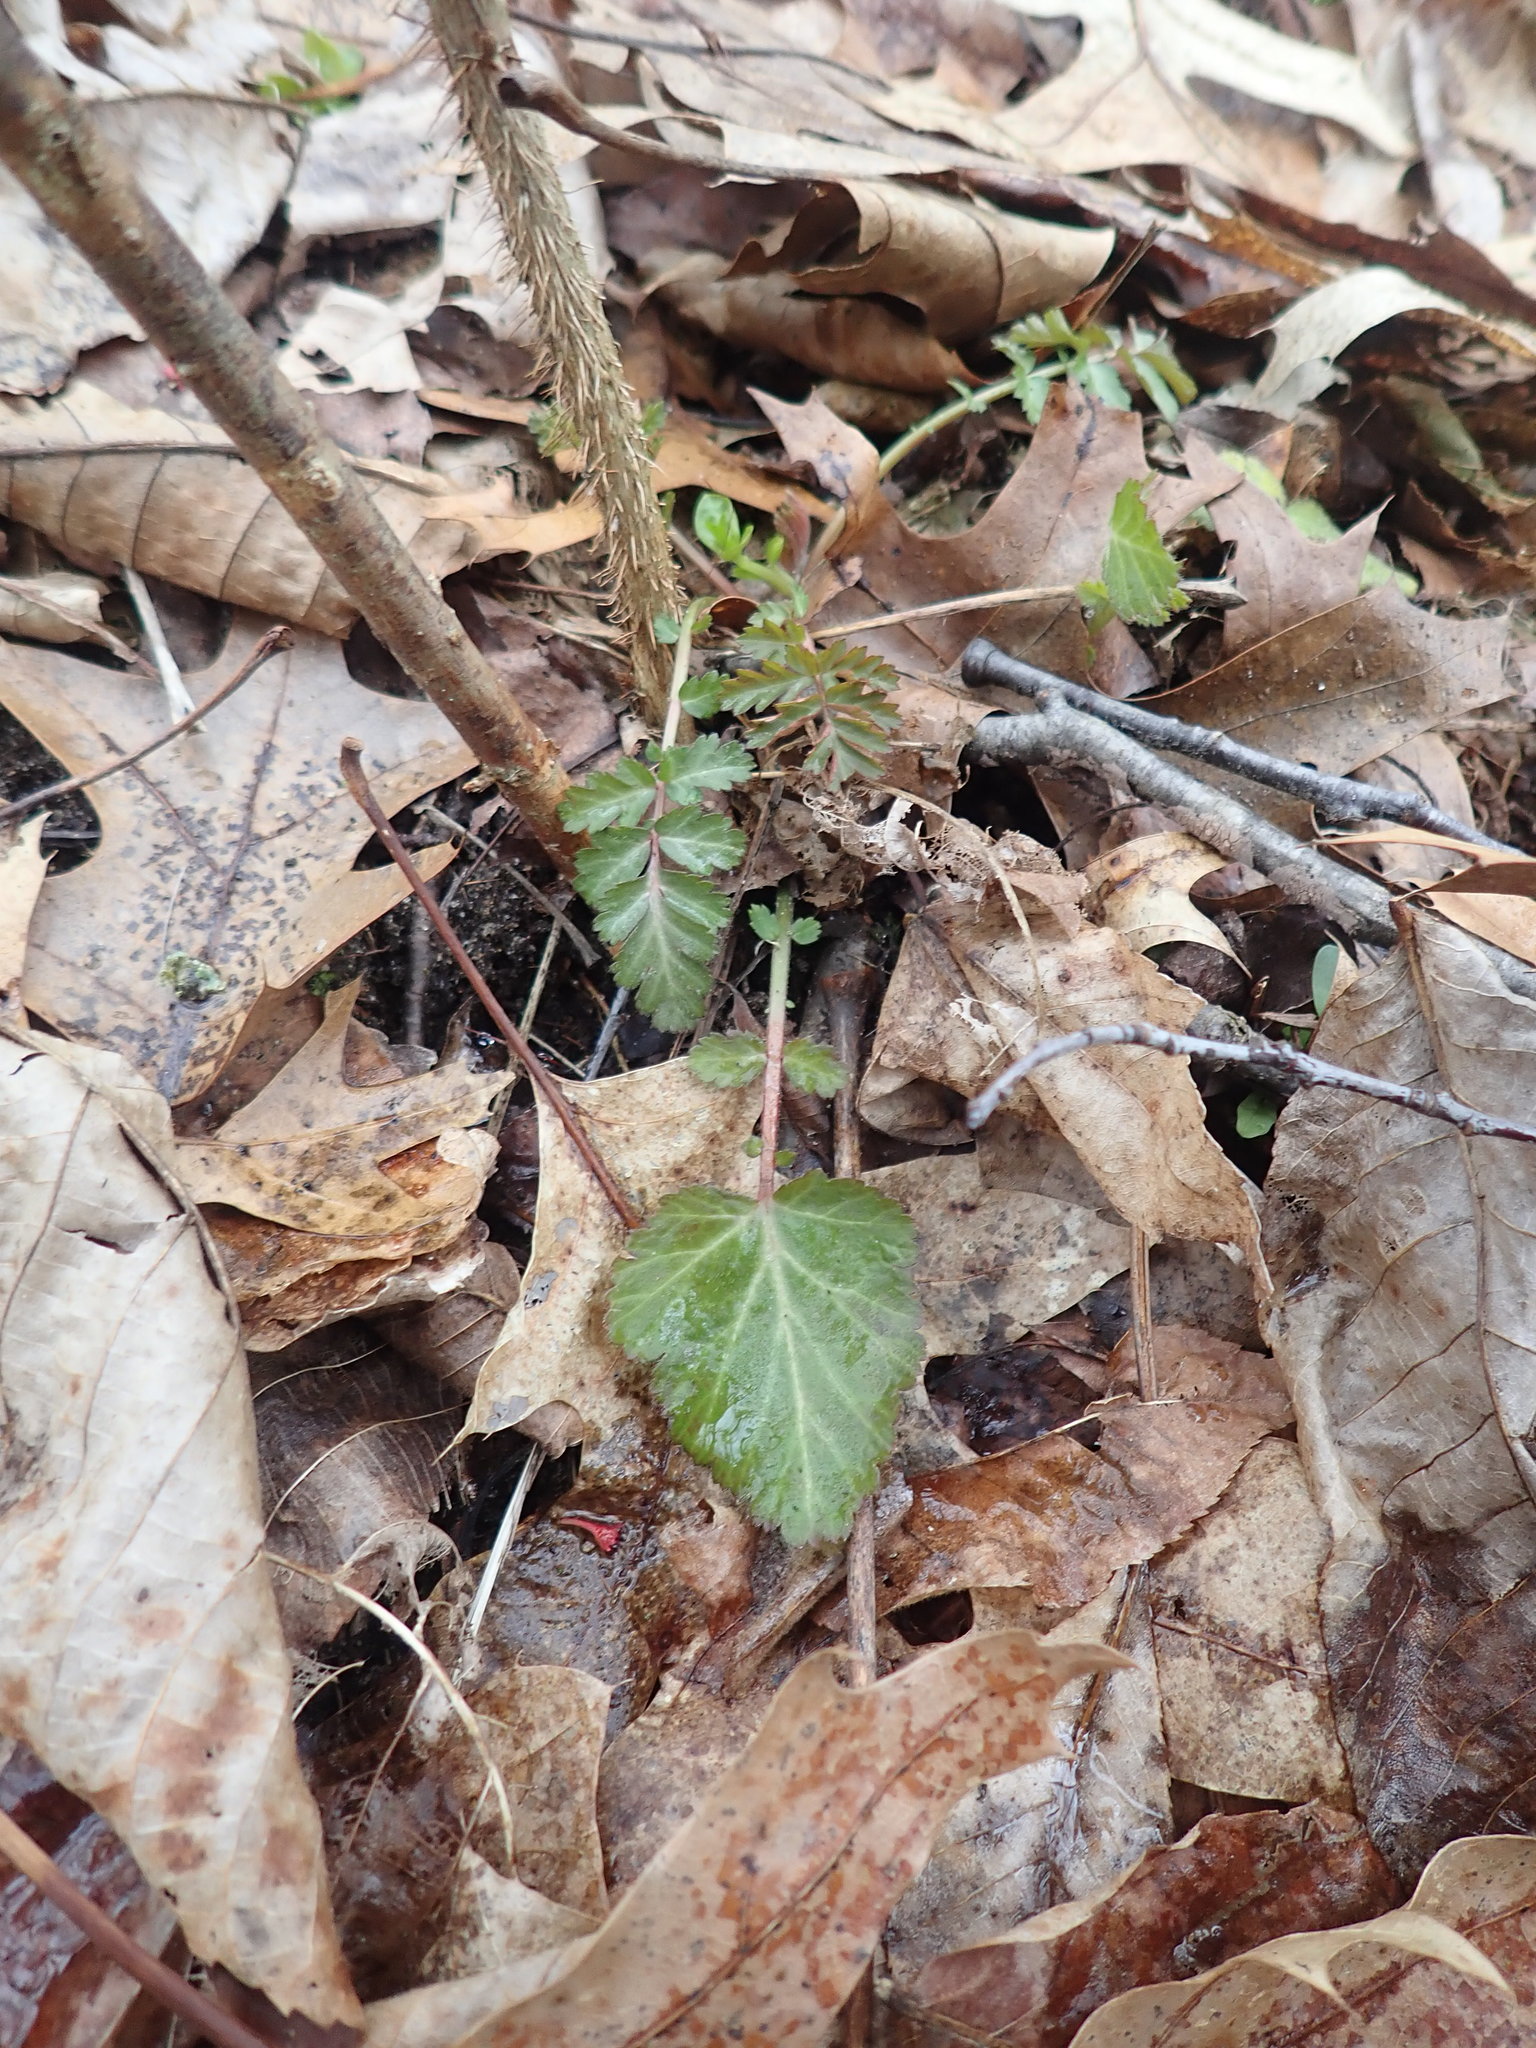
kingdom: Plantae
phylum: Tracheophyta
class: Magnoliopsida
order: Rosales
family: Rosaceae
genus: Geum
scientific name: Geum canadense
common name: White avens
